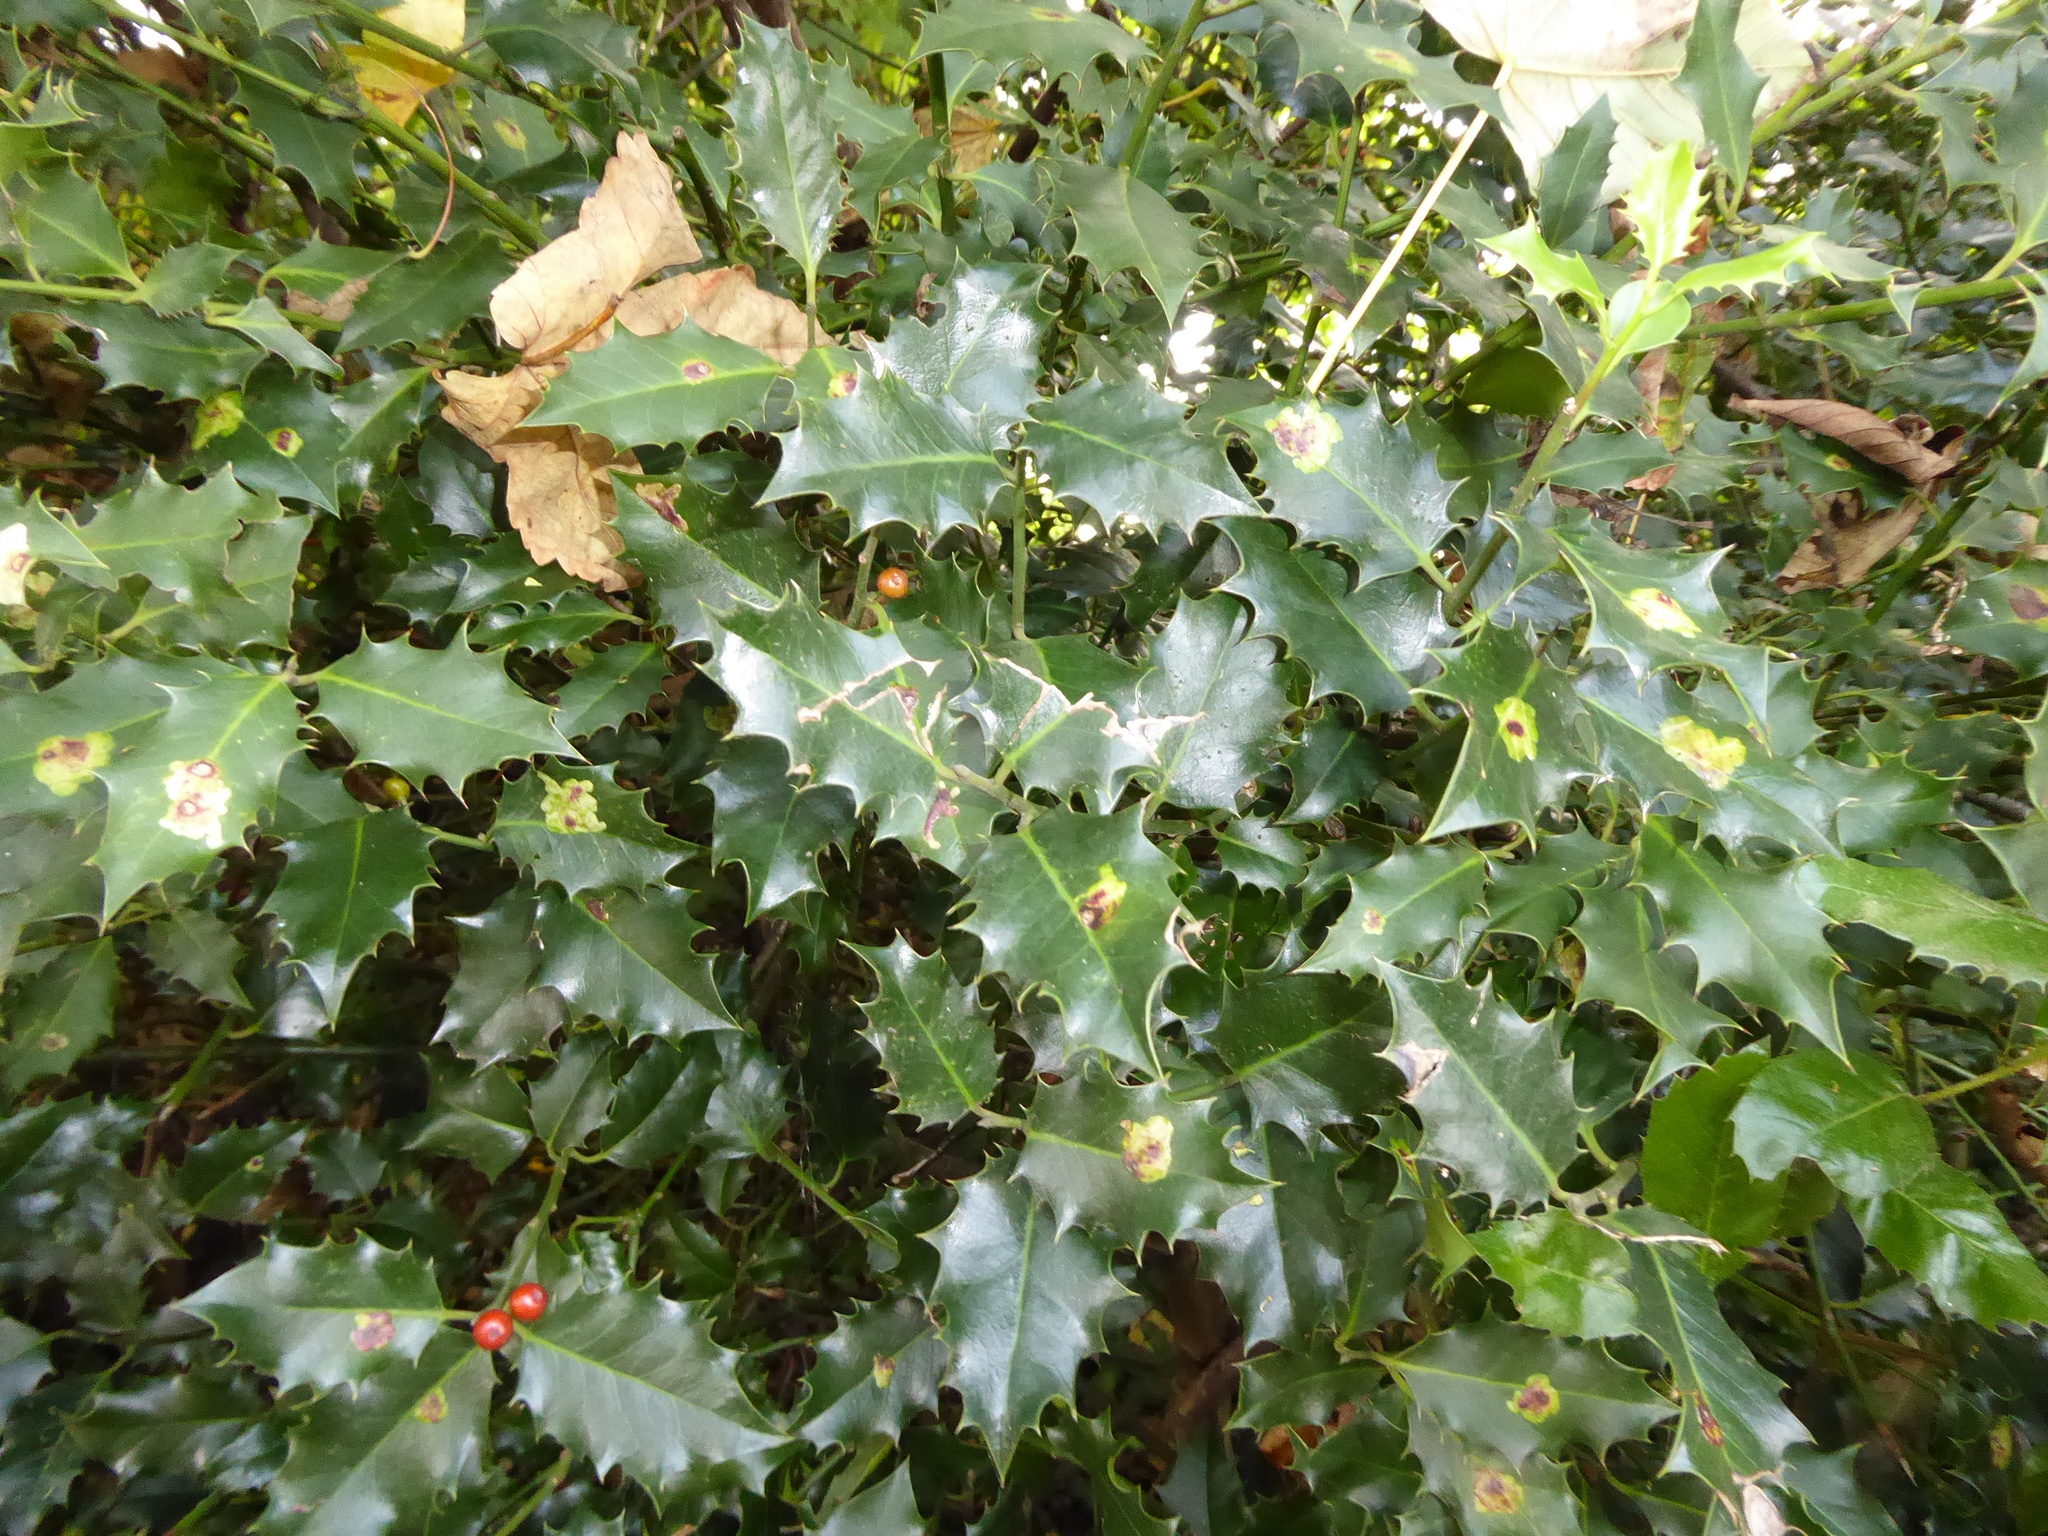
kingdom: Animalia
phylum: Arthropoda
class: Insecta
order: Diptera
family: Agromyzidae
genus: Phytomyza
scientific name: Phytomyza ilicis
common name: Holly leafminer
